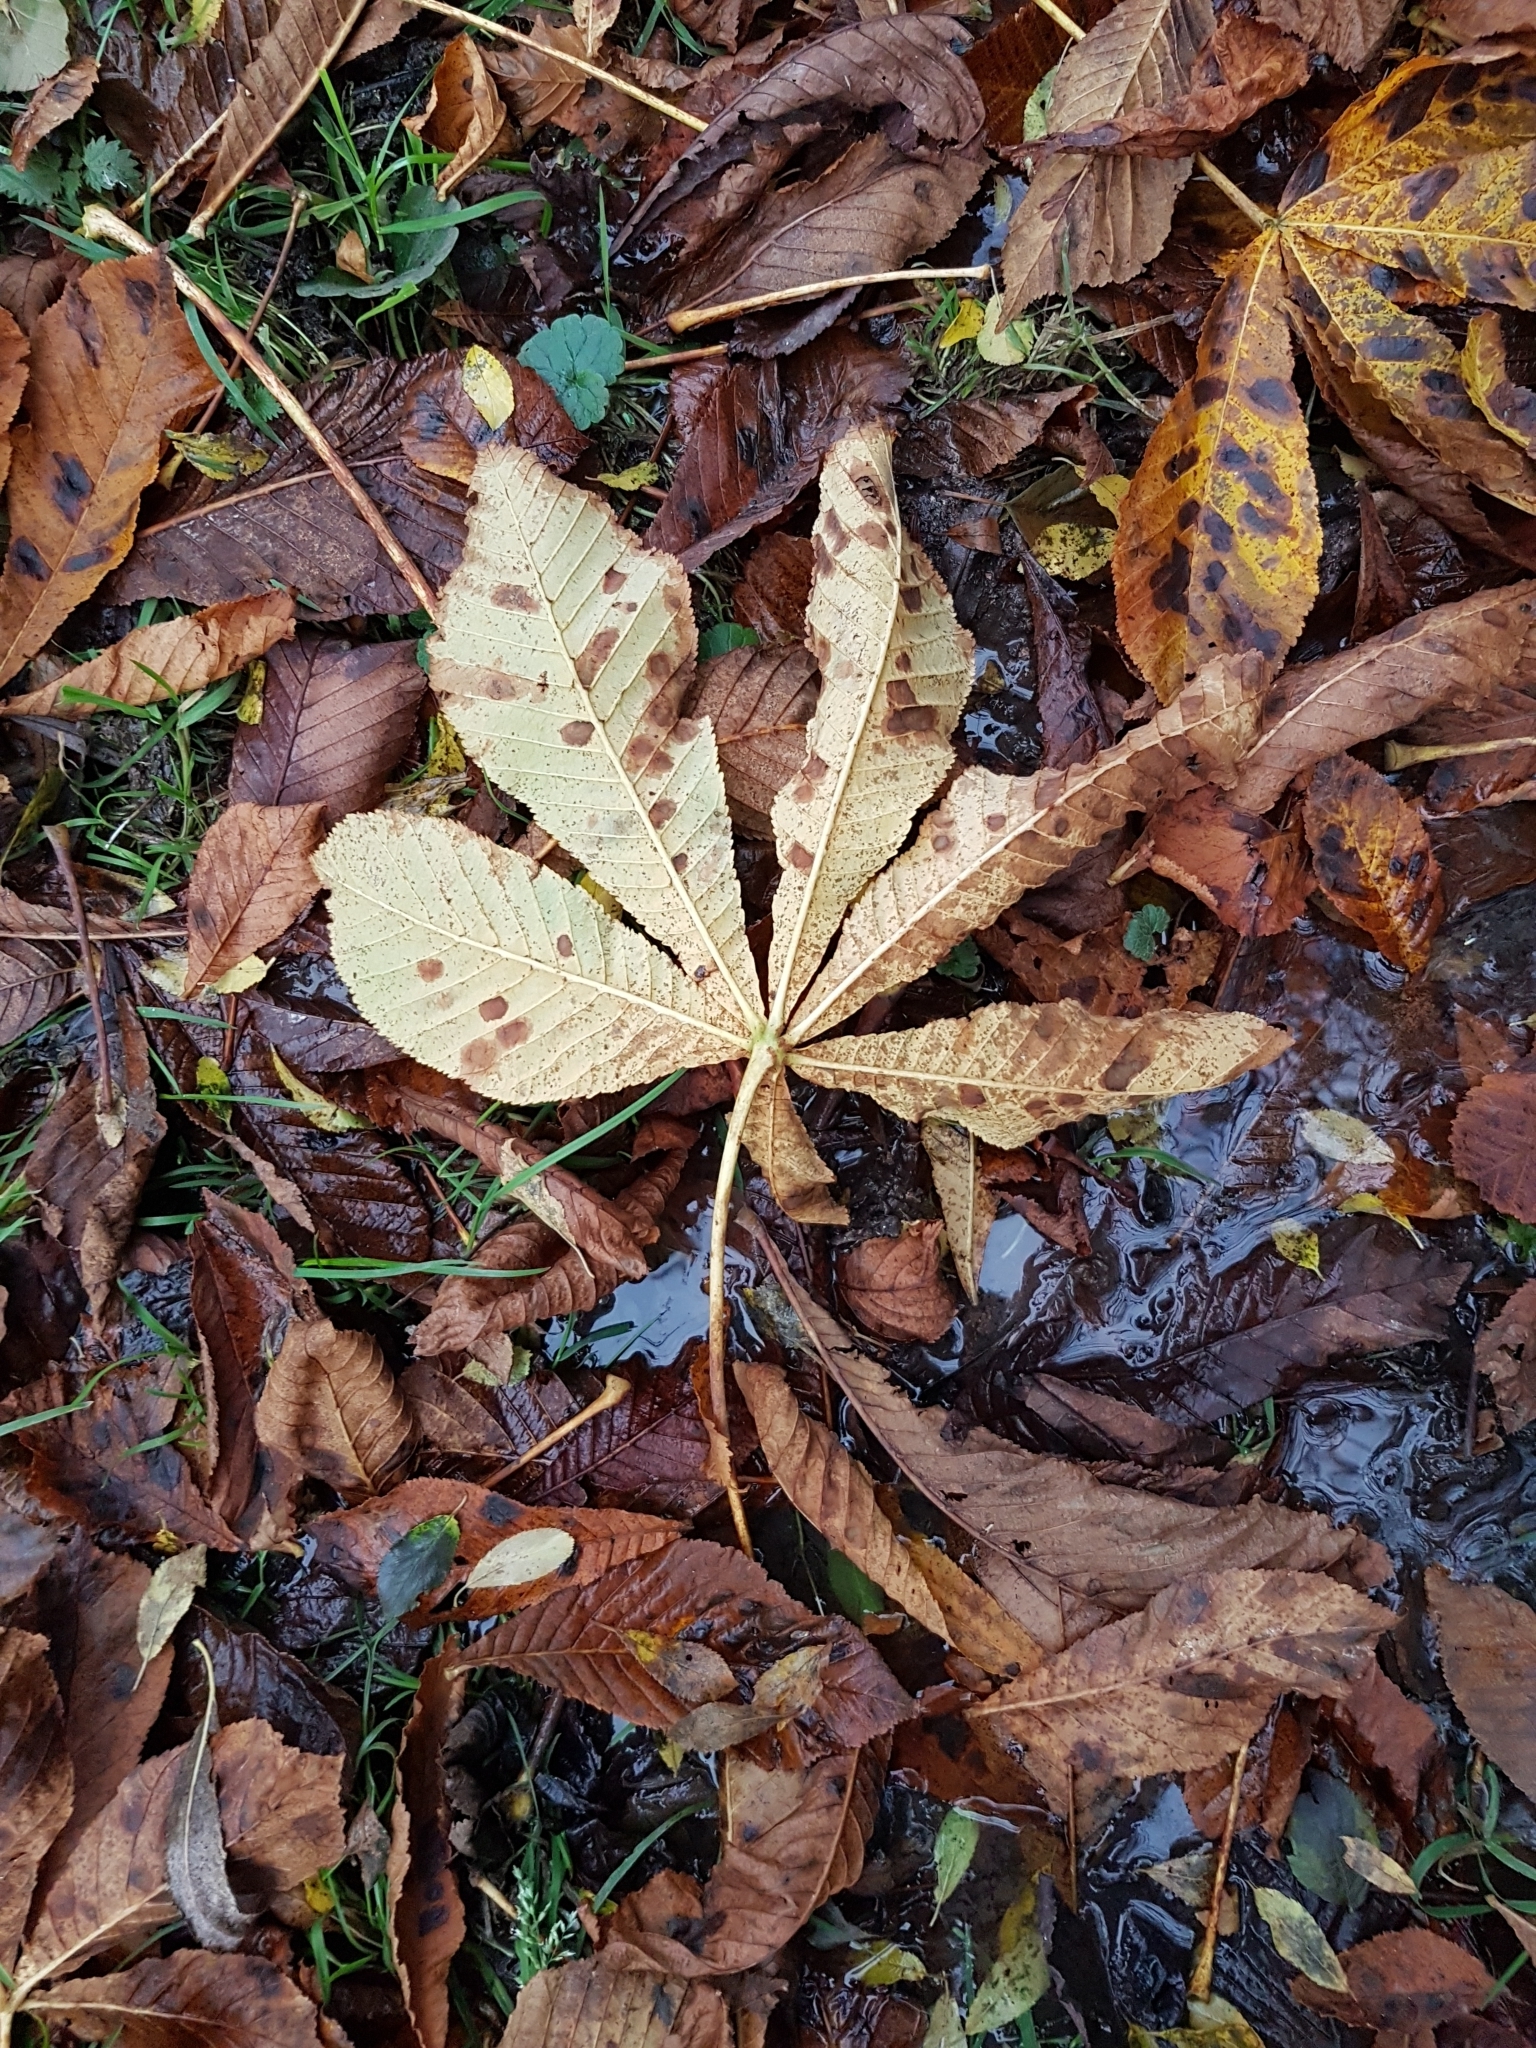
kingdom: Plantae
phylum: Tracheophyta
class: Magnoliopsida
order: Sapindales
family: Sapindaceae
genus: Aesculus
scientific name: Aesculus hippocastanum
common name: Horse-chestnut
